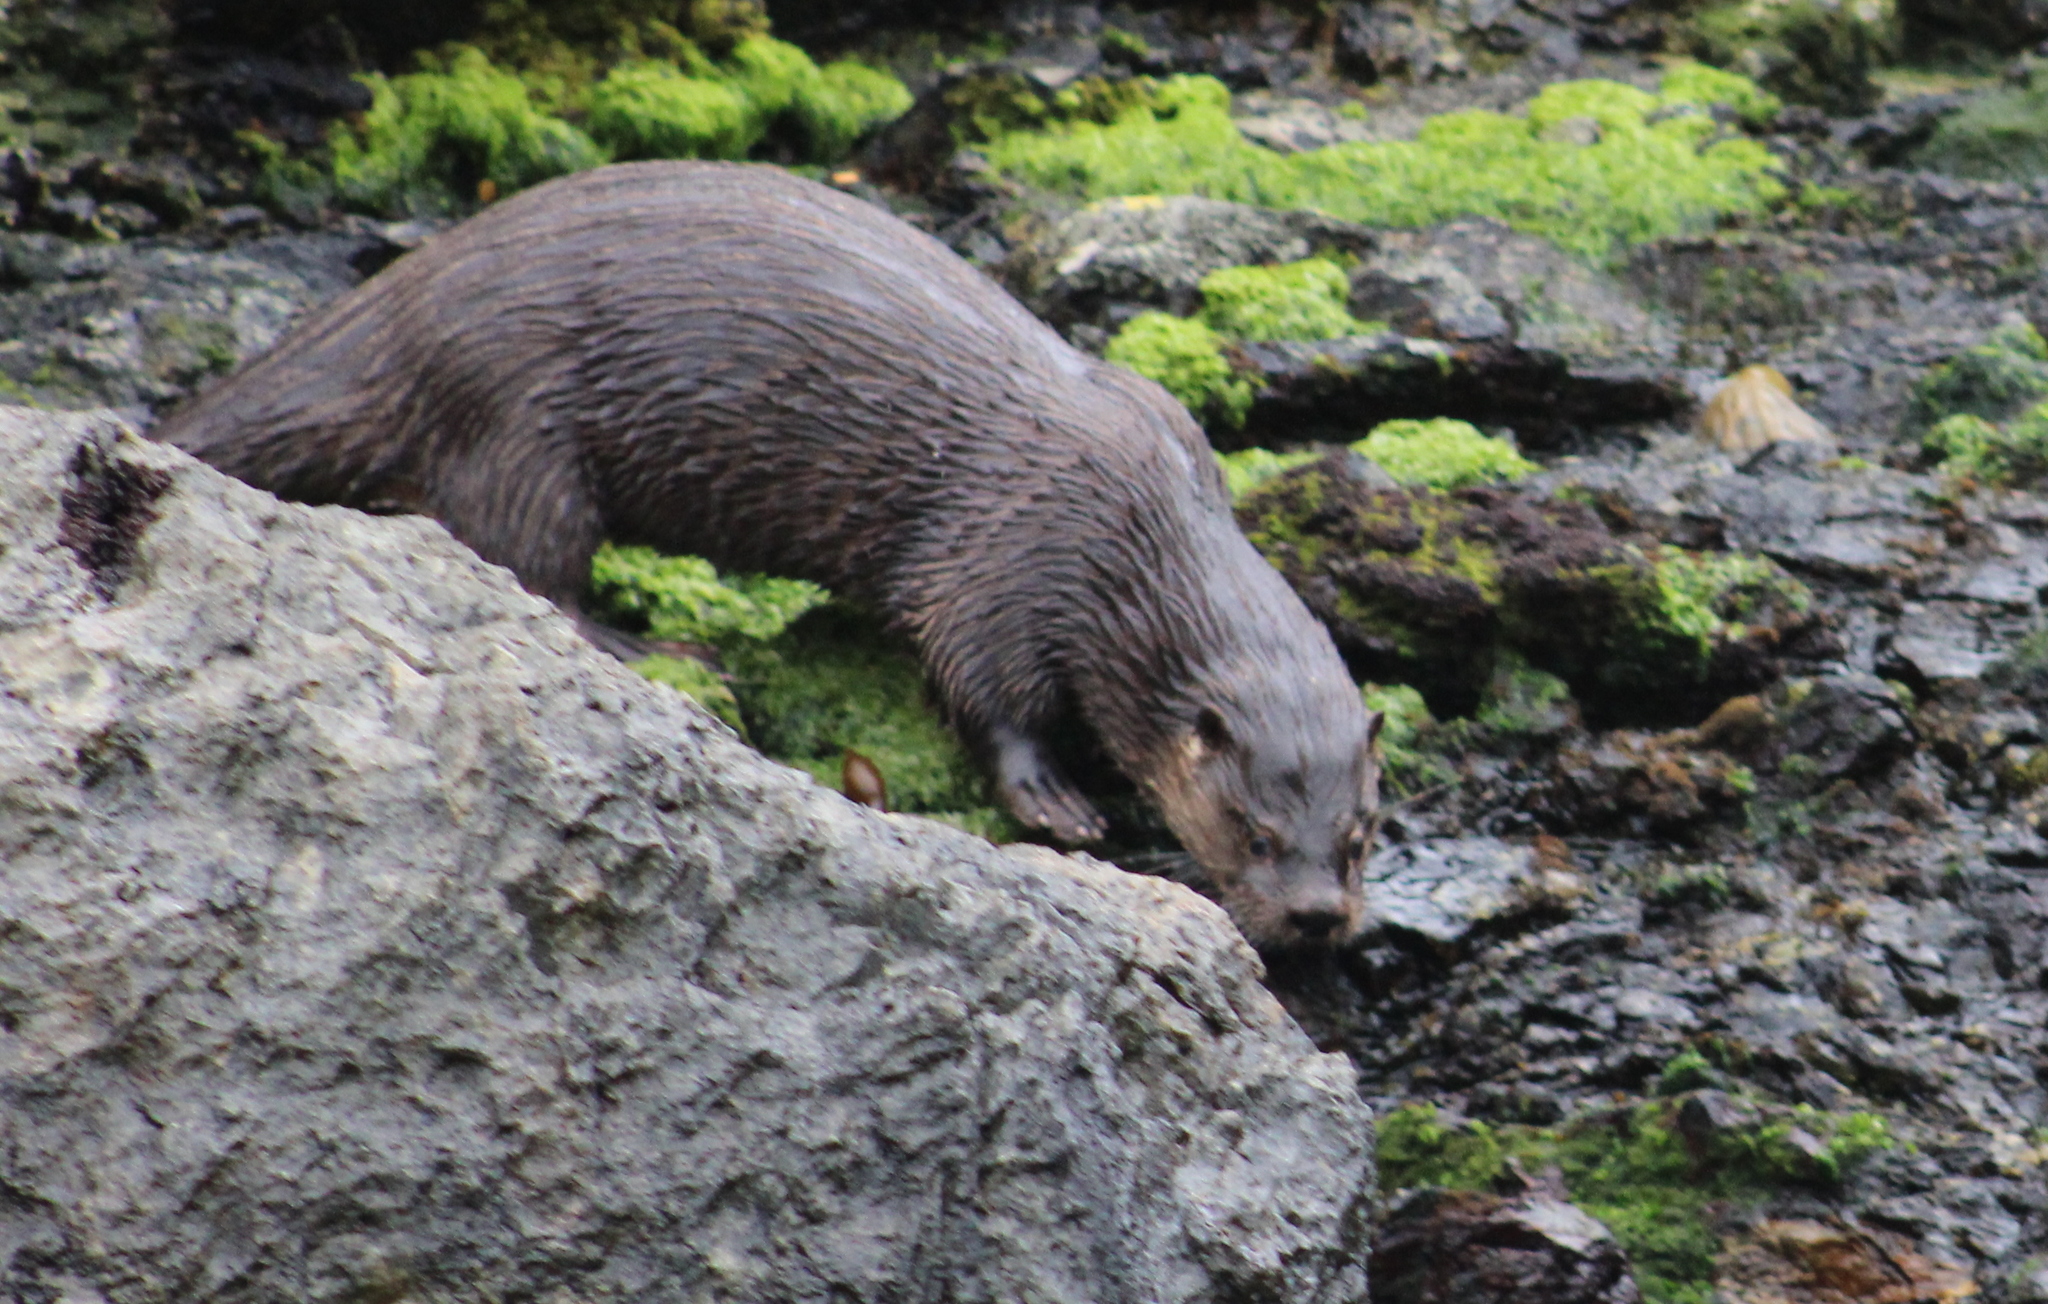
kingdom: Animalia
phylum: Chordata
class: Mammalia
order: Carnivora
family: Mustelidae
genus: Lontra
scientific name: Lontra provocax
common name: Southern river otter
